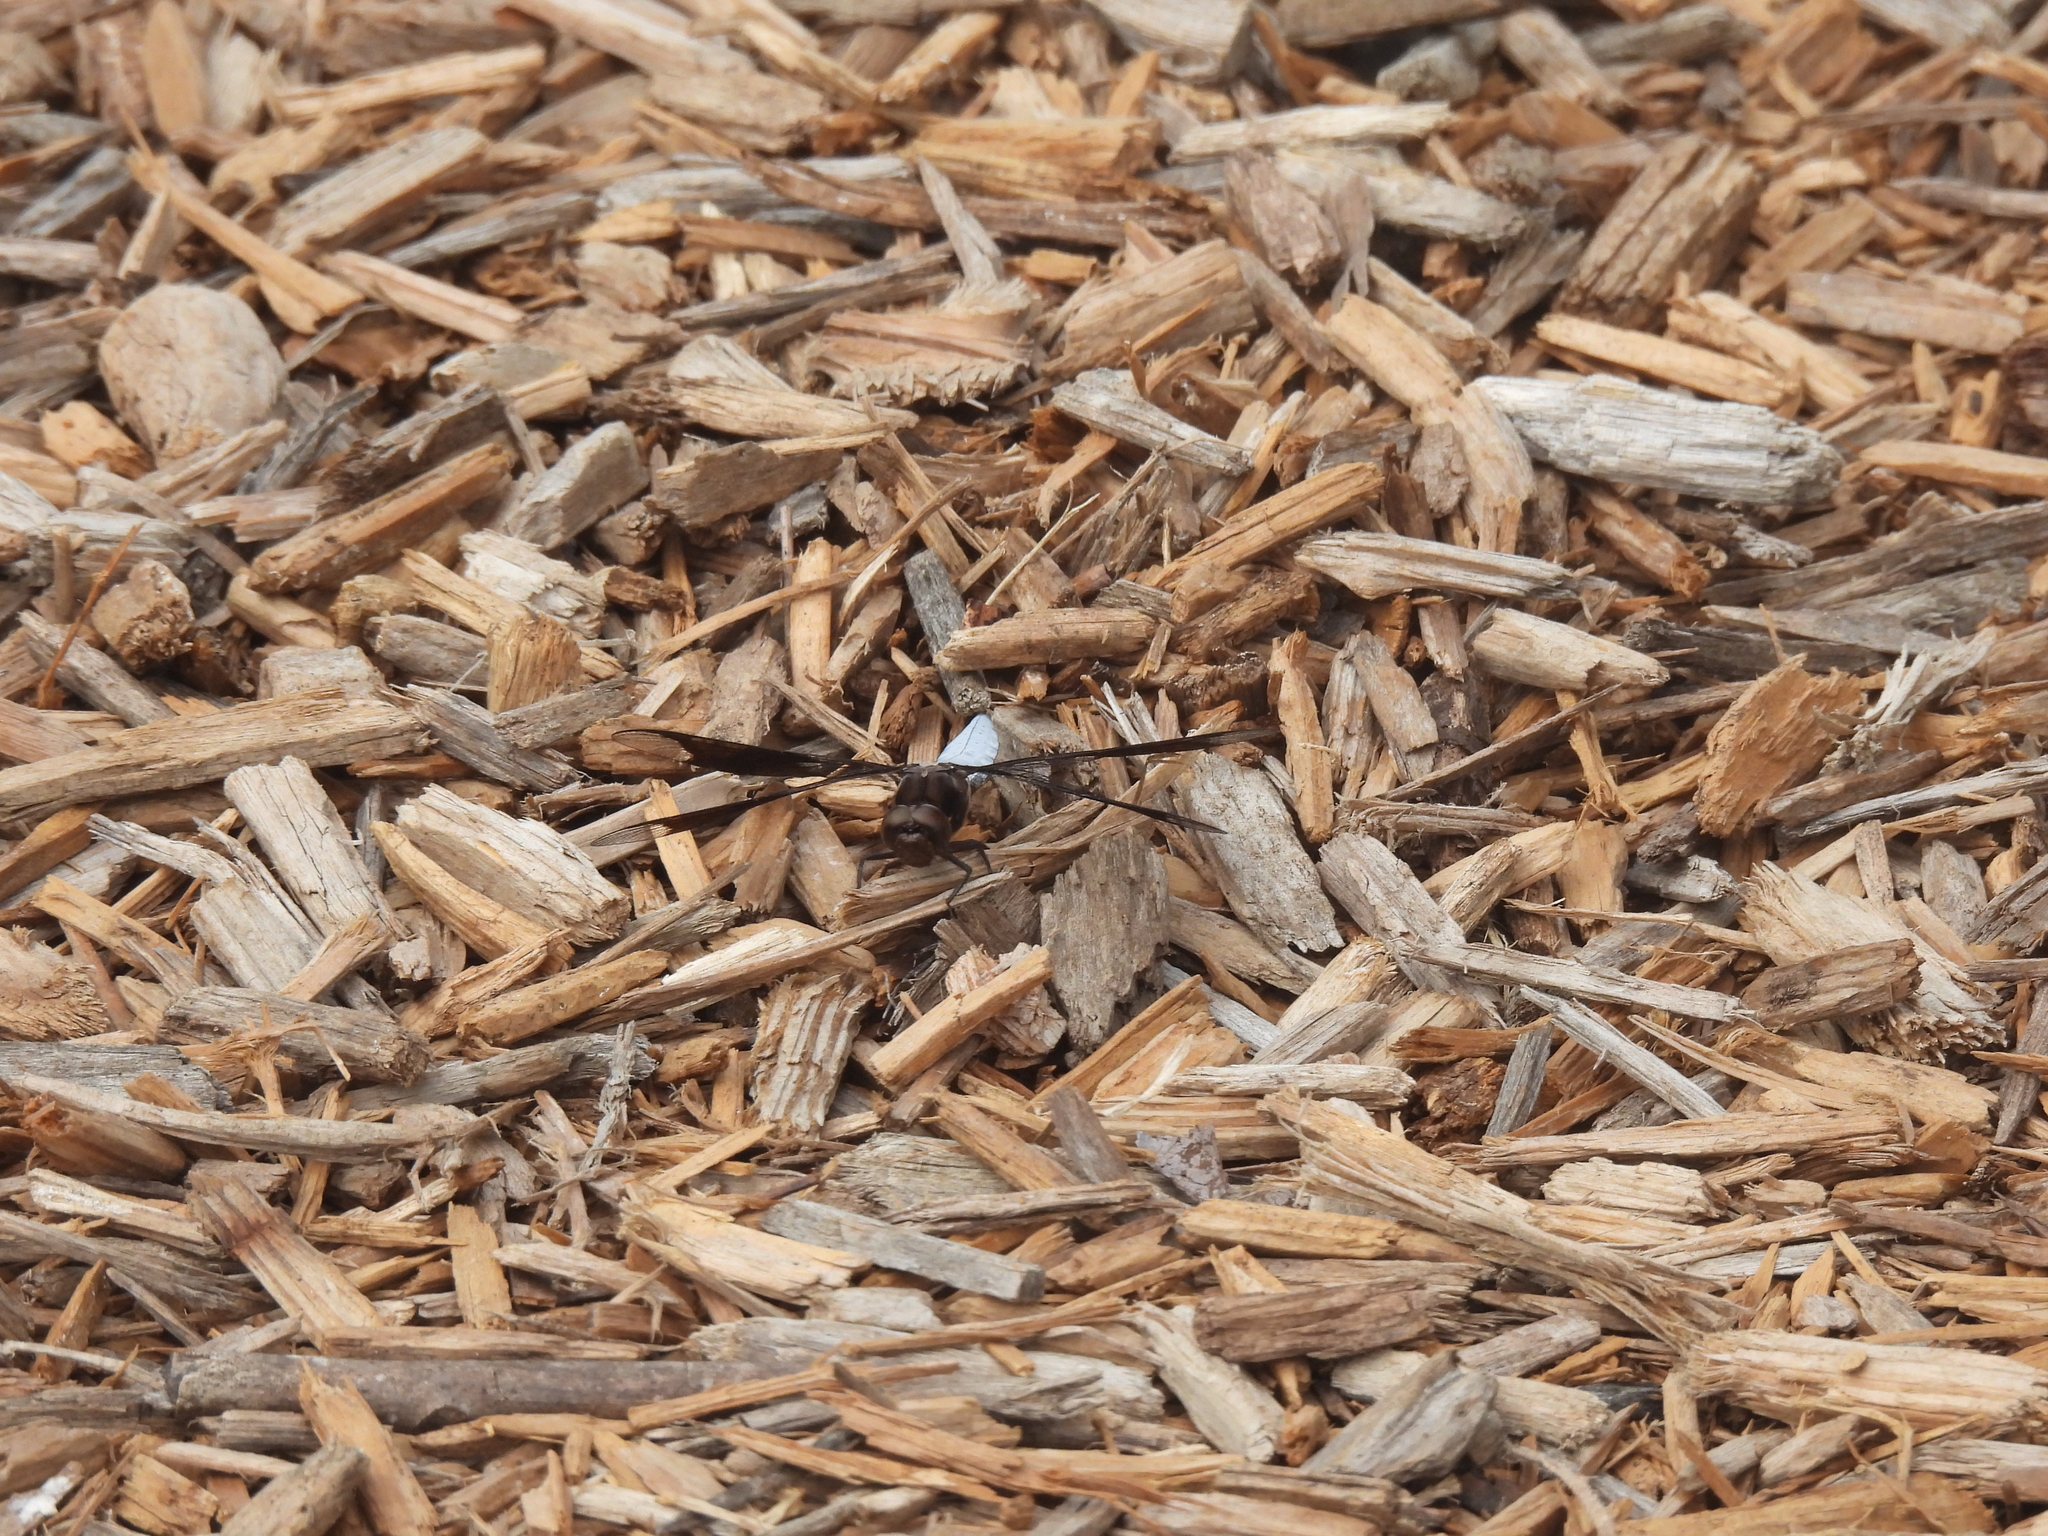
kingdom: Animalia
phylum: Arthropoda
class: Insecta
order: Odonata
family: Libellulidae
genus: Plathemis
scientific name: Plathemis lydia
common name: Common whitetail
